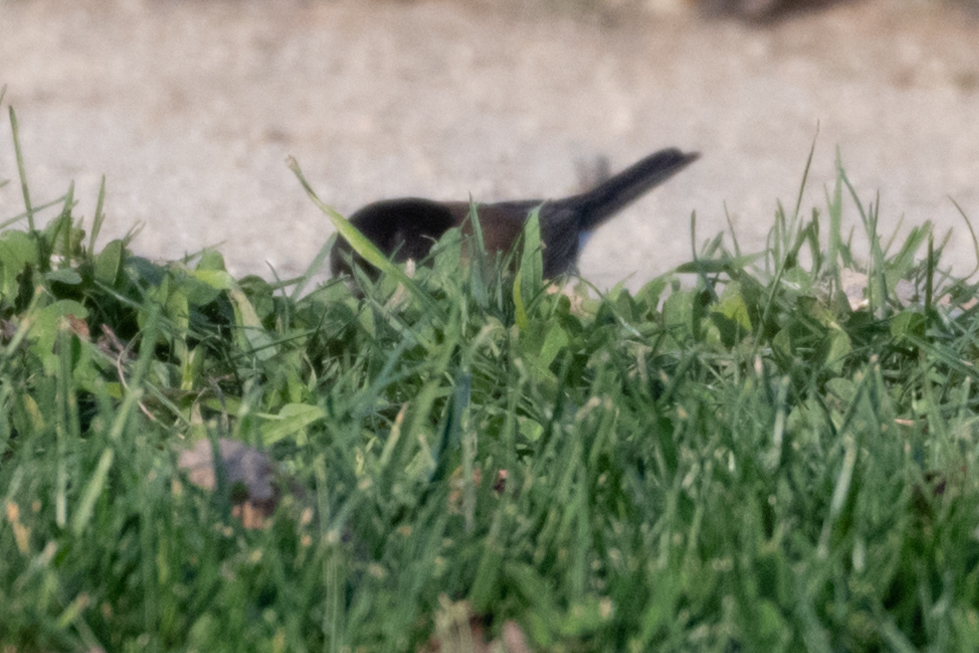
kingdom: Animalia
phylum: Chordata
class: Aves
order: Passeriformes
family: Passerellidae
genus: Junco
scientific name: Junco hyemalis
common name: Dark-eyed junco
